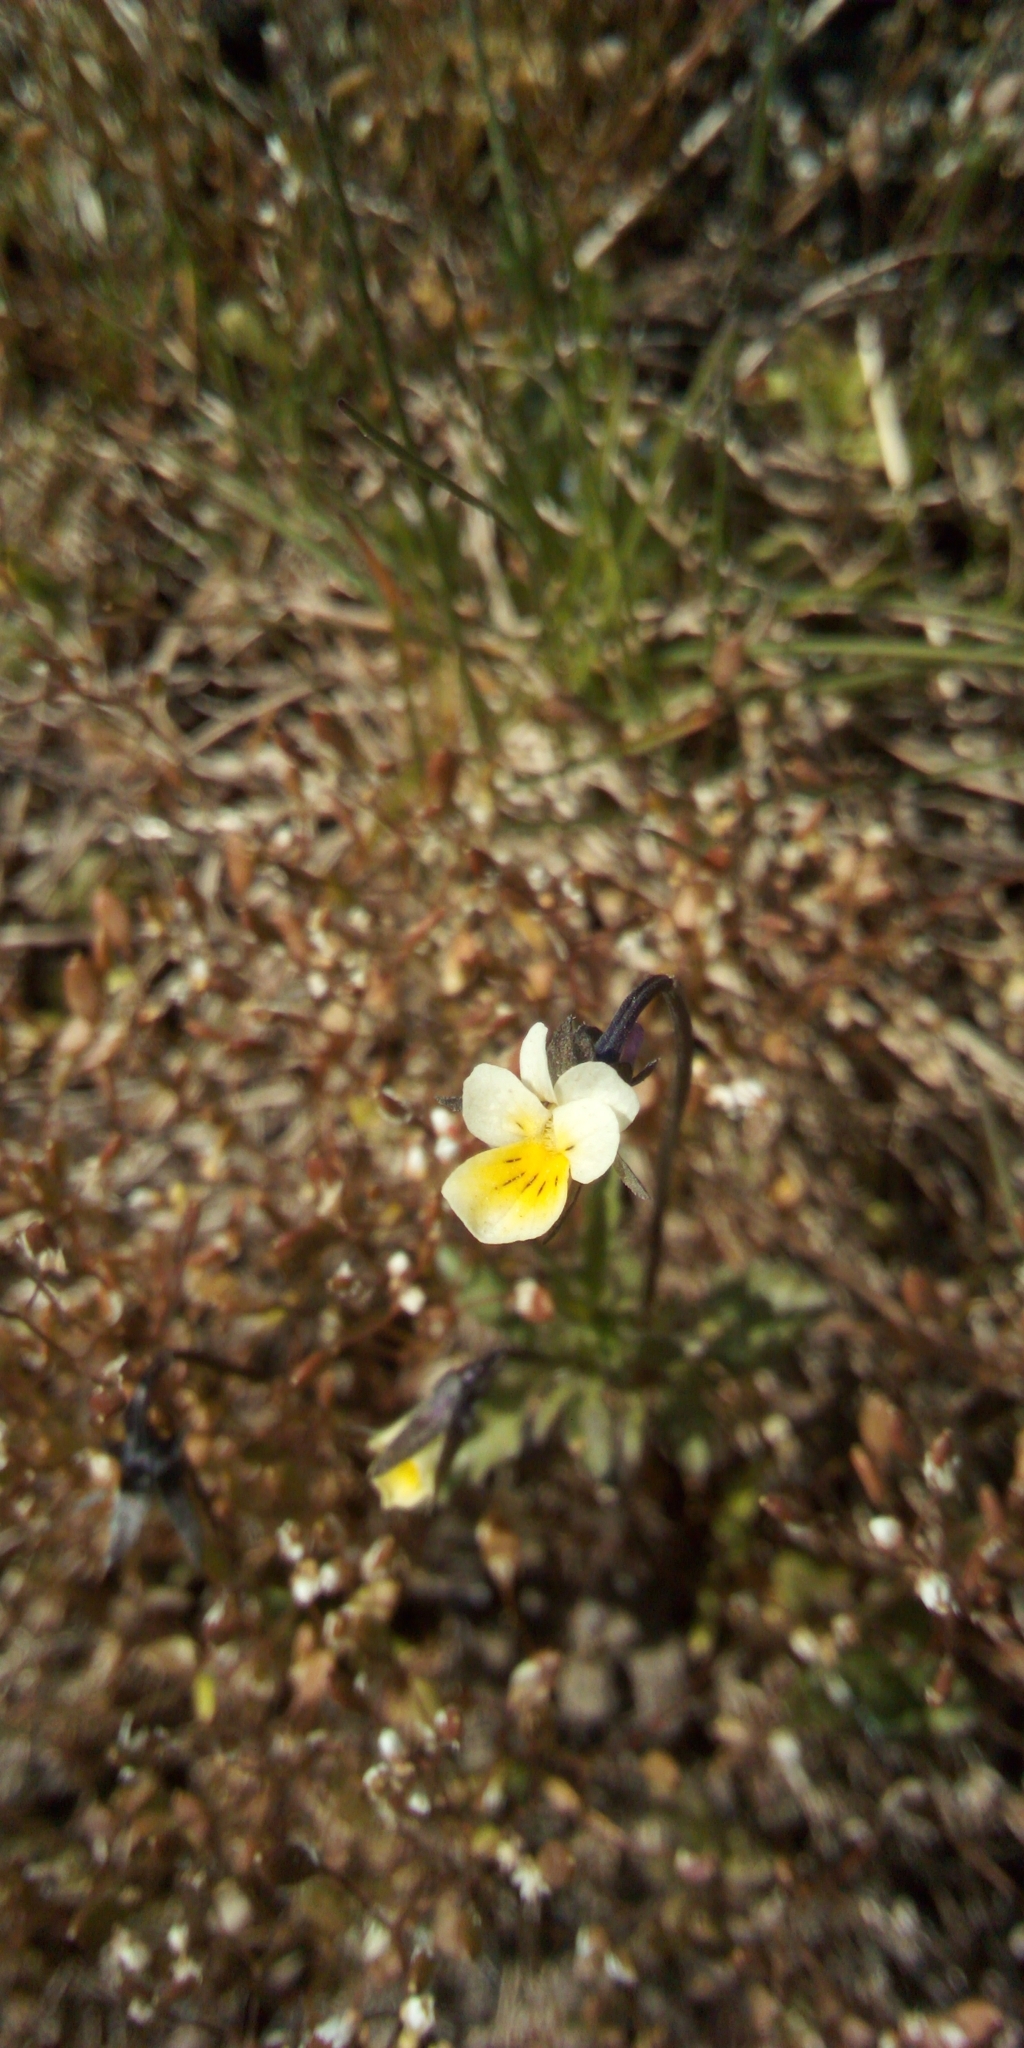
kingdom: Plantae
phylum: Tracheophyta
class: Magnoliopsida
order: Malpighiales
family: Violaceae
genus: Viola
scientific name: Viola arvensis
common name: Field pansy
